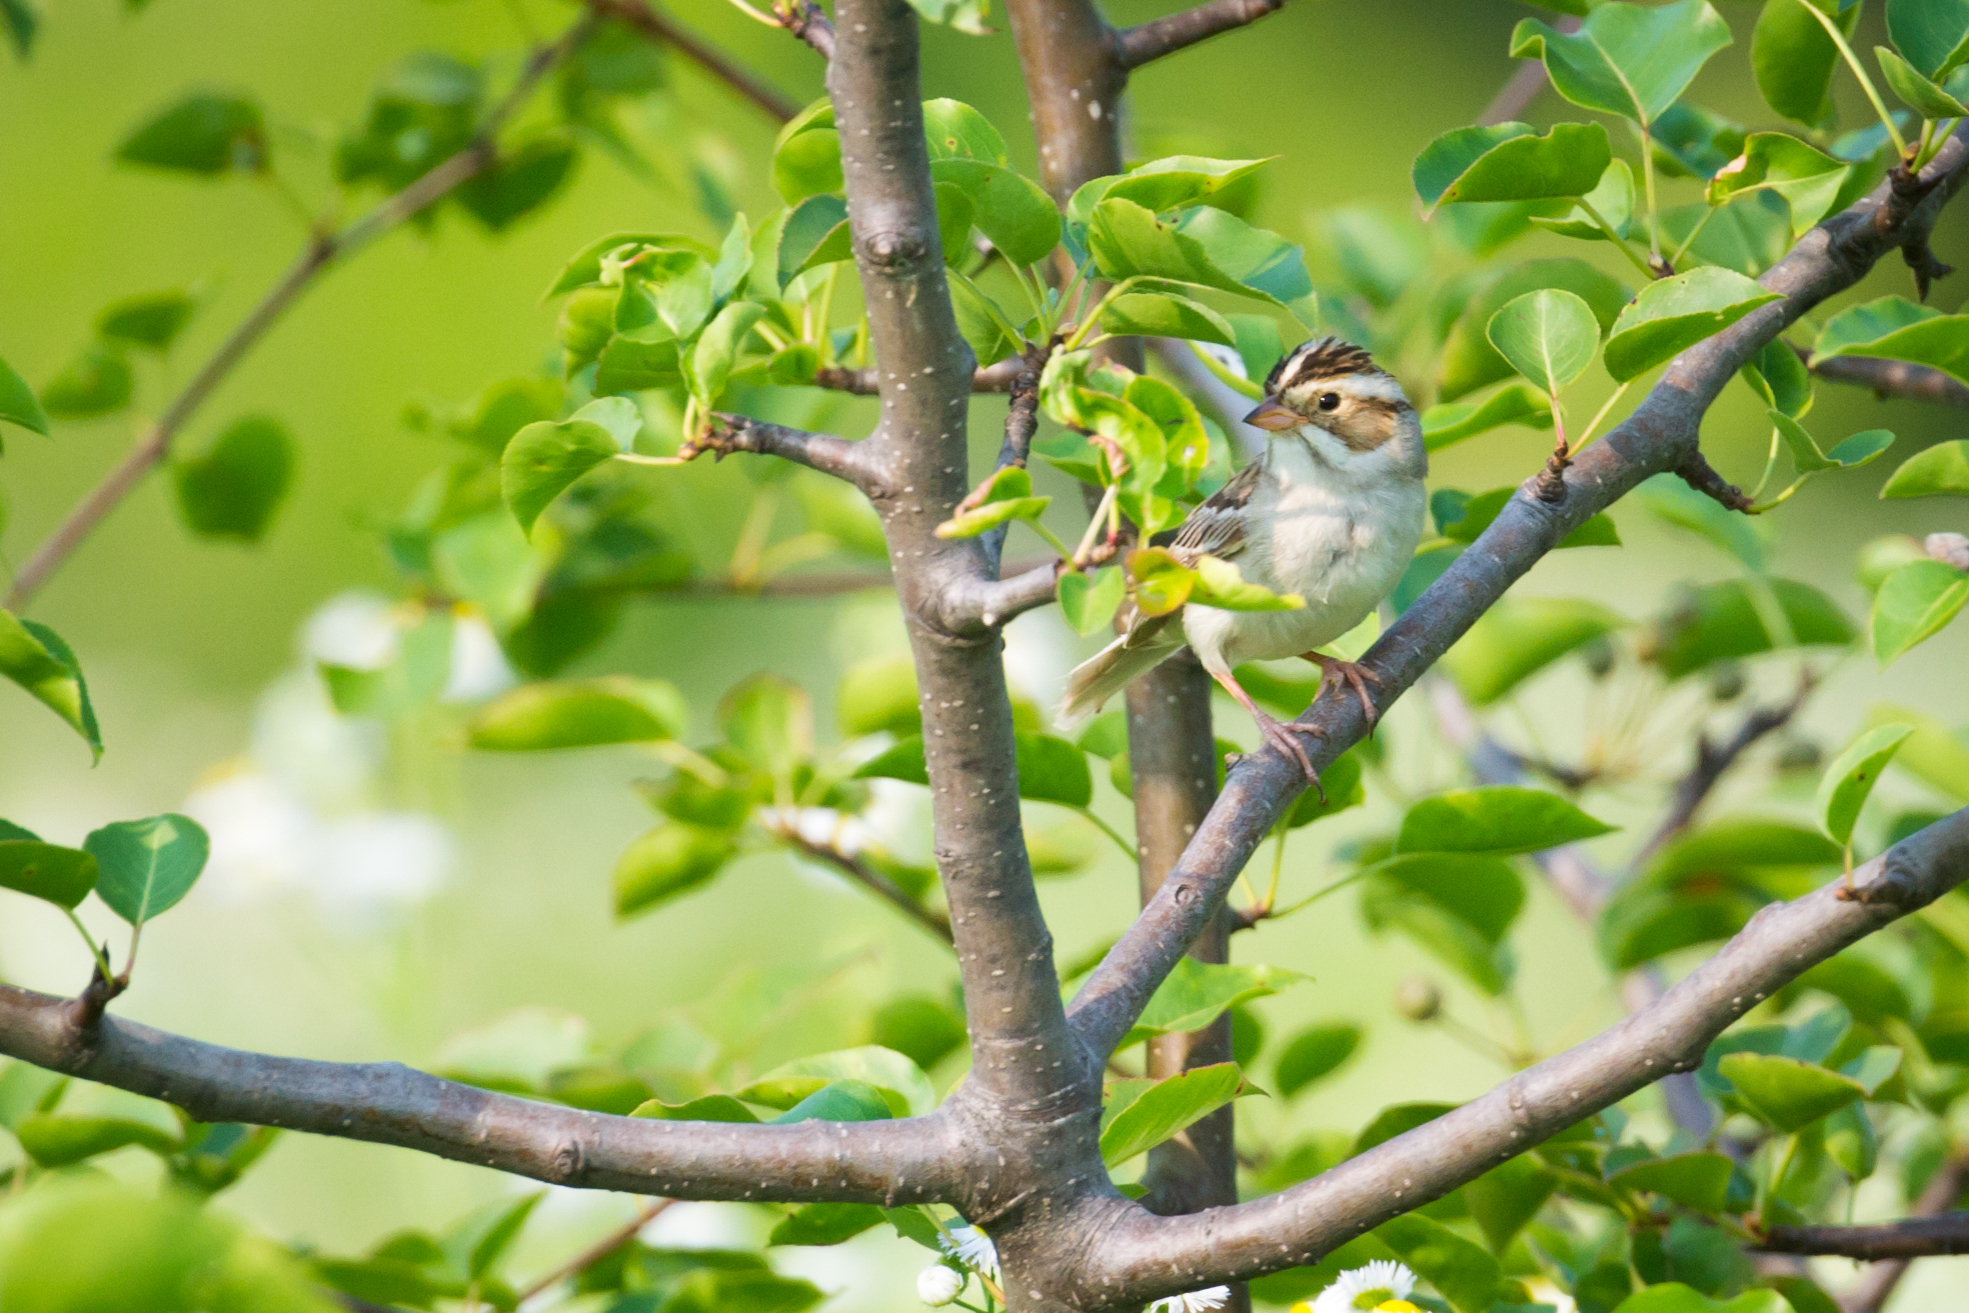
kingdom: Animalia
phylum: Chordata
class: Aves
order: Passeriformes
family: Passerellidae
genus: Spizella
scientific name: Spizella pallida
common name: Clay-colored sparrow
